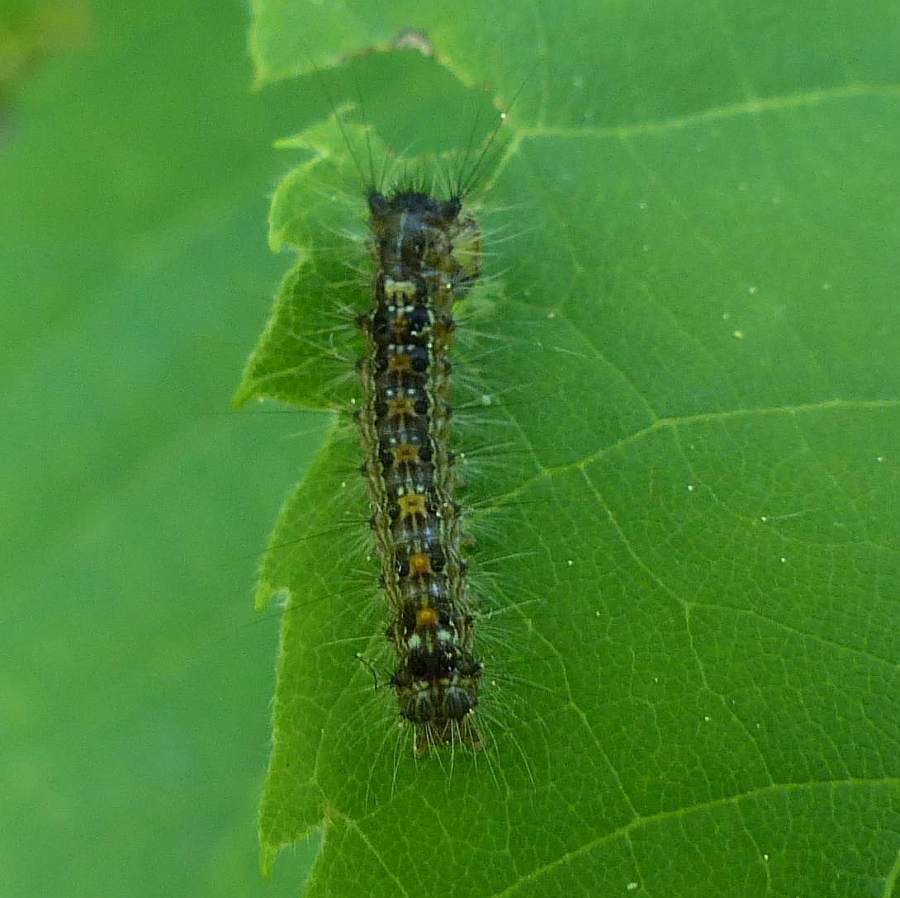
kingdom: Animalia
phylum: Arthropoda
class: Insecta
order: Lepidoptera
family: Erebidae
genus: Lymantria
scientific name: Lymantria dispar
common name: Gypsy moth
